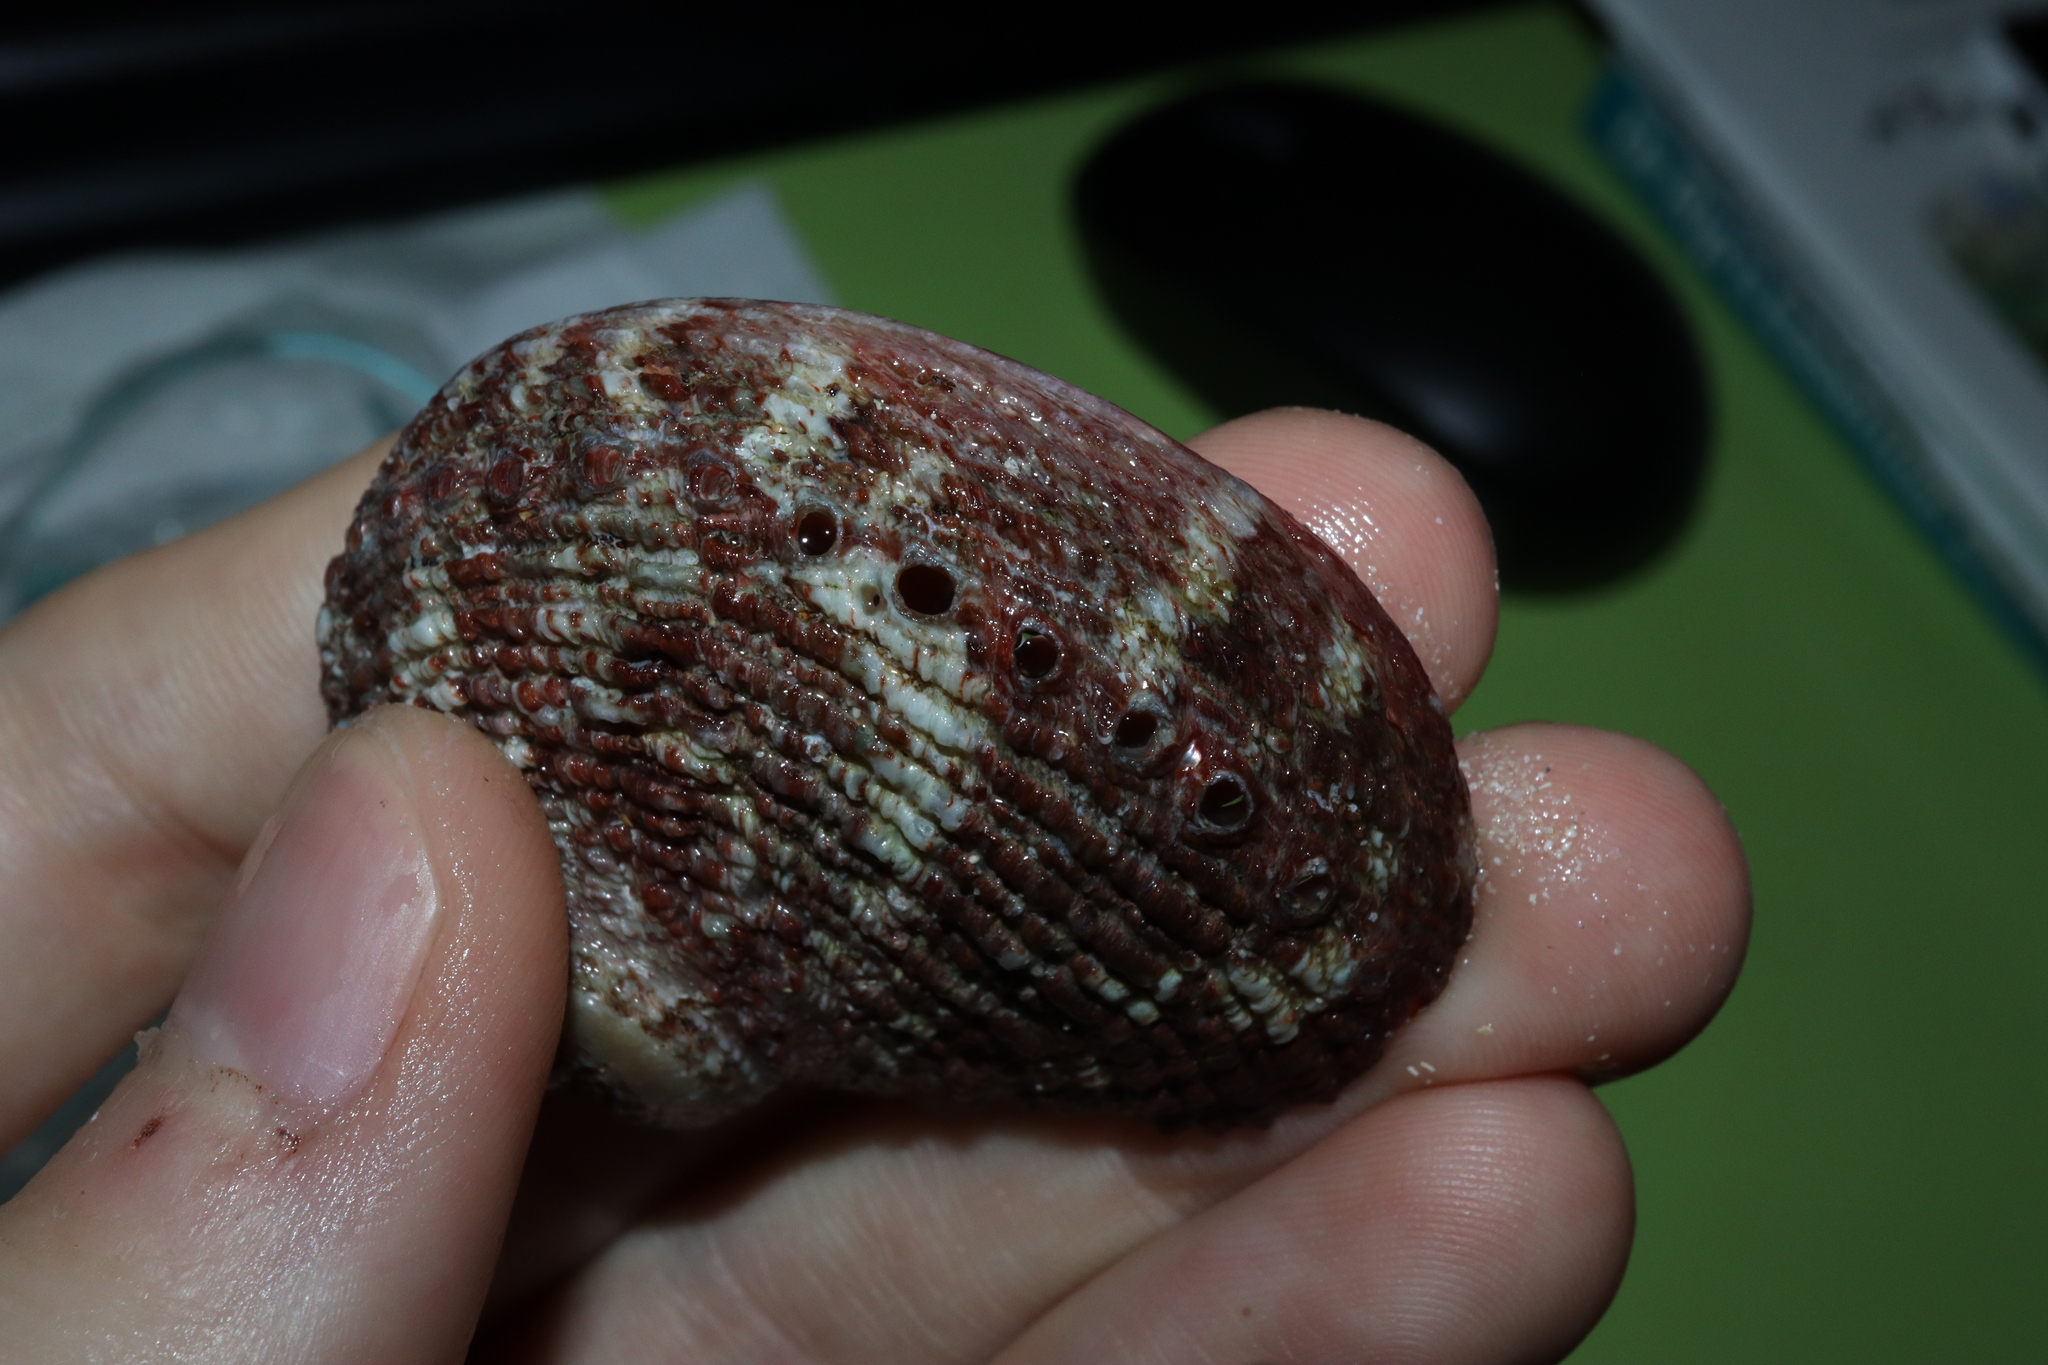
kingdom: Animalia
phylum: Mollusca
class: Gastropoda
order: Lepetellida
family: Haliotidae
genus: Haliotis
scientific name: Haliotis roei
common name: Roe's abalone
